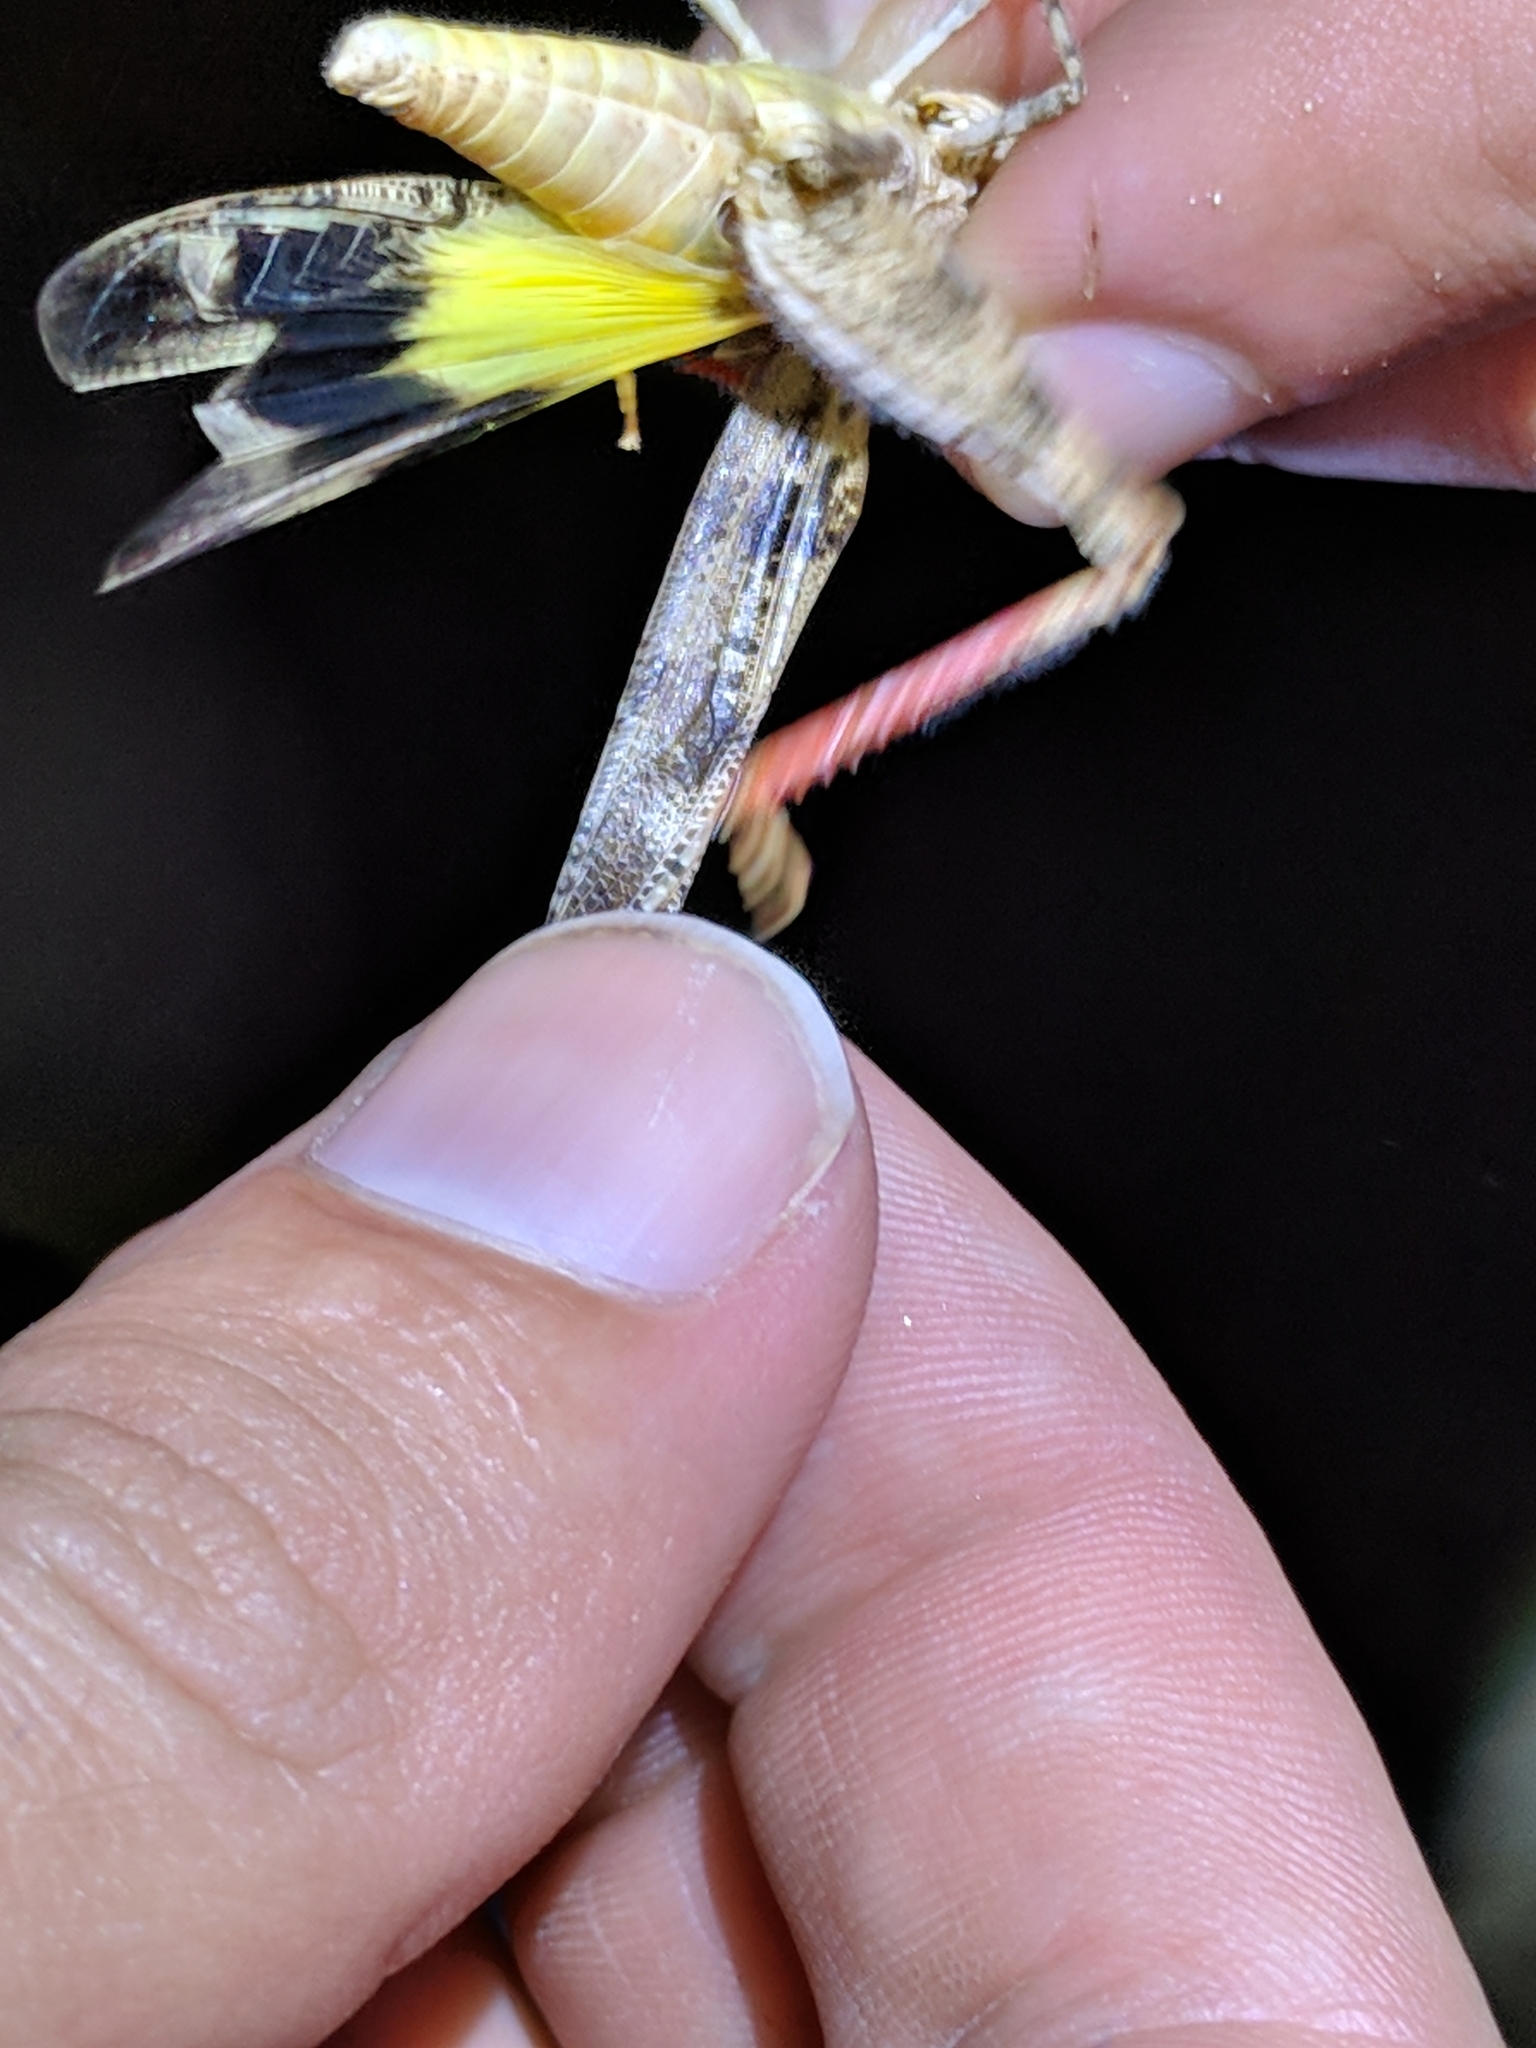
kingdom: Animalia
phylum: Arthropoda
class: Insecta
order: Orthoptera
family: Acrididae
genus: Spharagemon
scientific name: Spharagemon cristatum
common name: Ridgeback sand grasshopper
